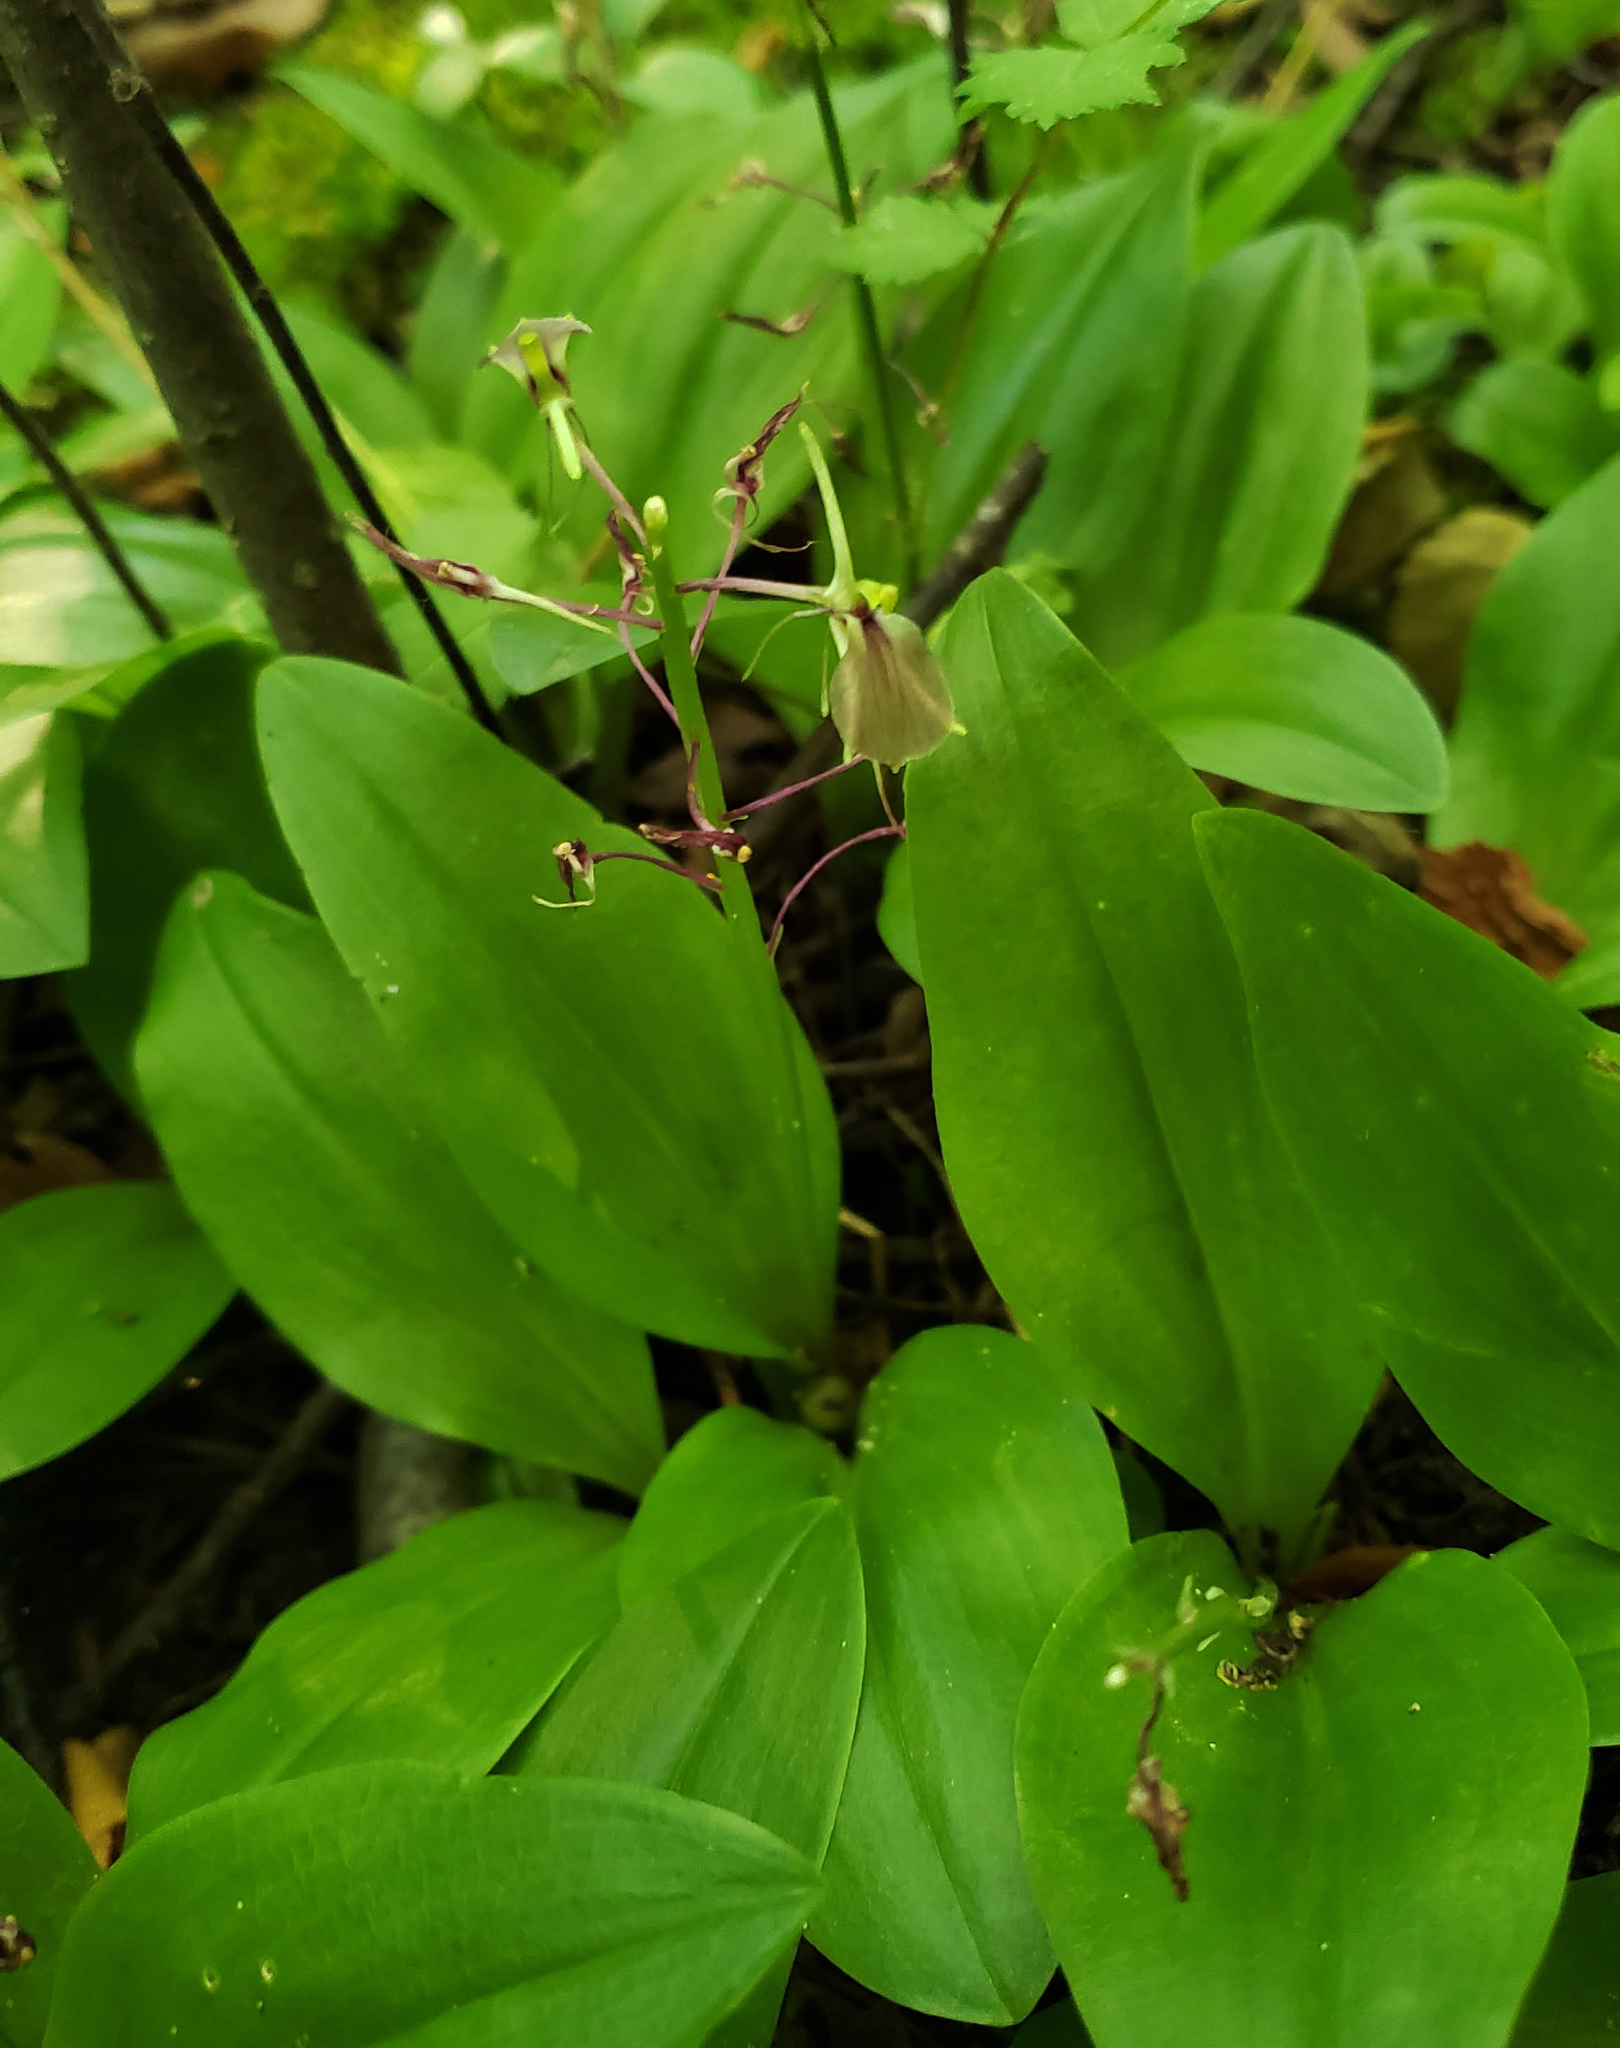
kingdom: Plantae
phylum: Tracheophyta
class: Liliopsida
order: Asparagales
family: Orchidaceae
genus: Liparis
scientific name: Liparis liliifolia
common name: Brown wide-lip orchid
